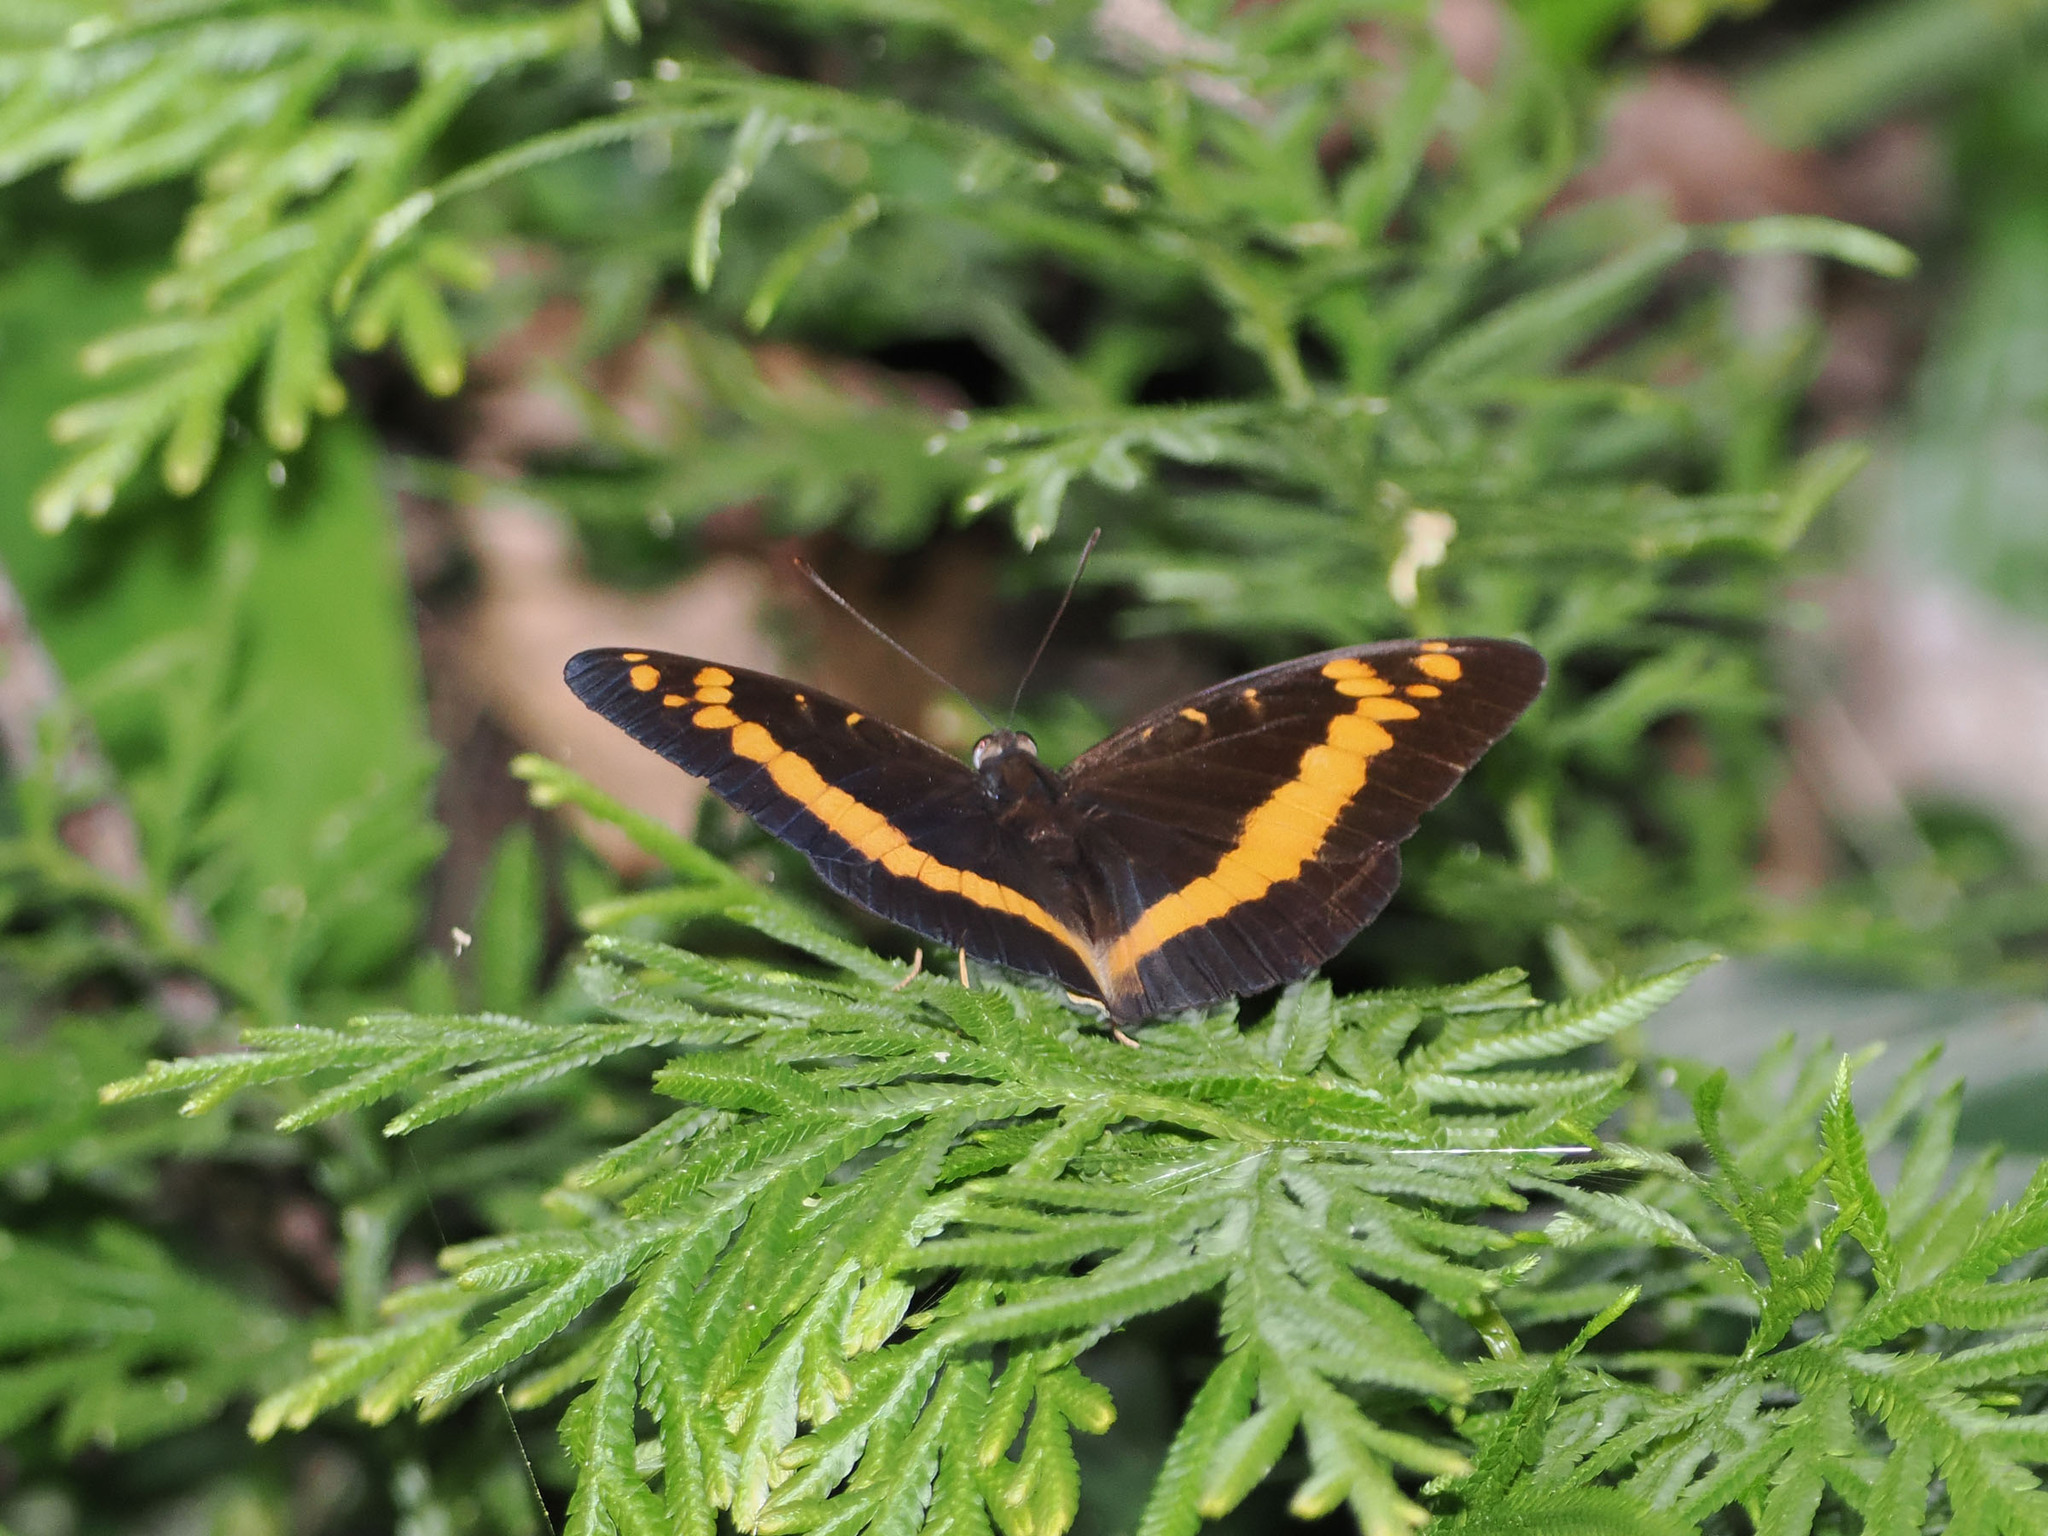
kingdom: Animalia
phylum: Arthropoda
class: Insecta
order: Lepidoptera
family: Nymphalidae
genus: Lexias
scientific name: Lexias aeropa
